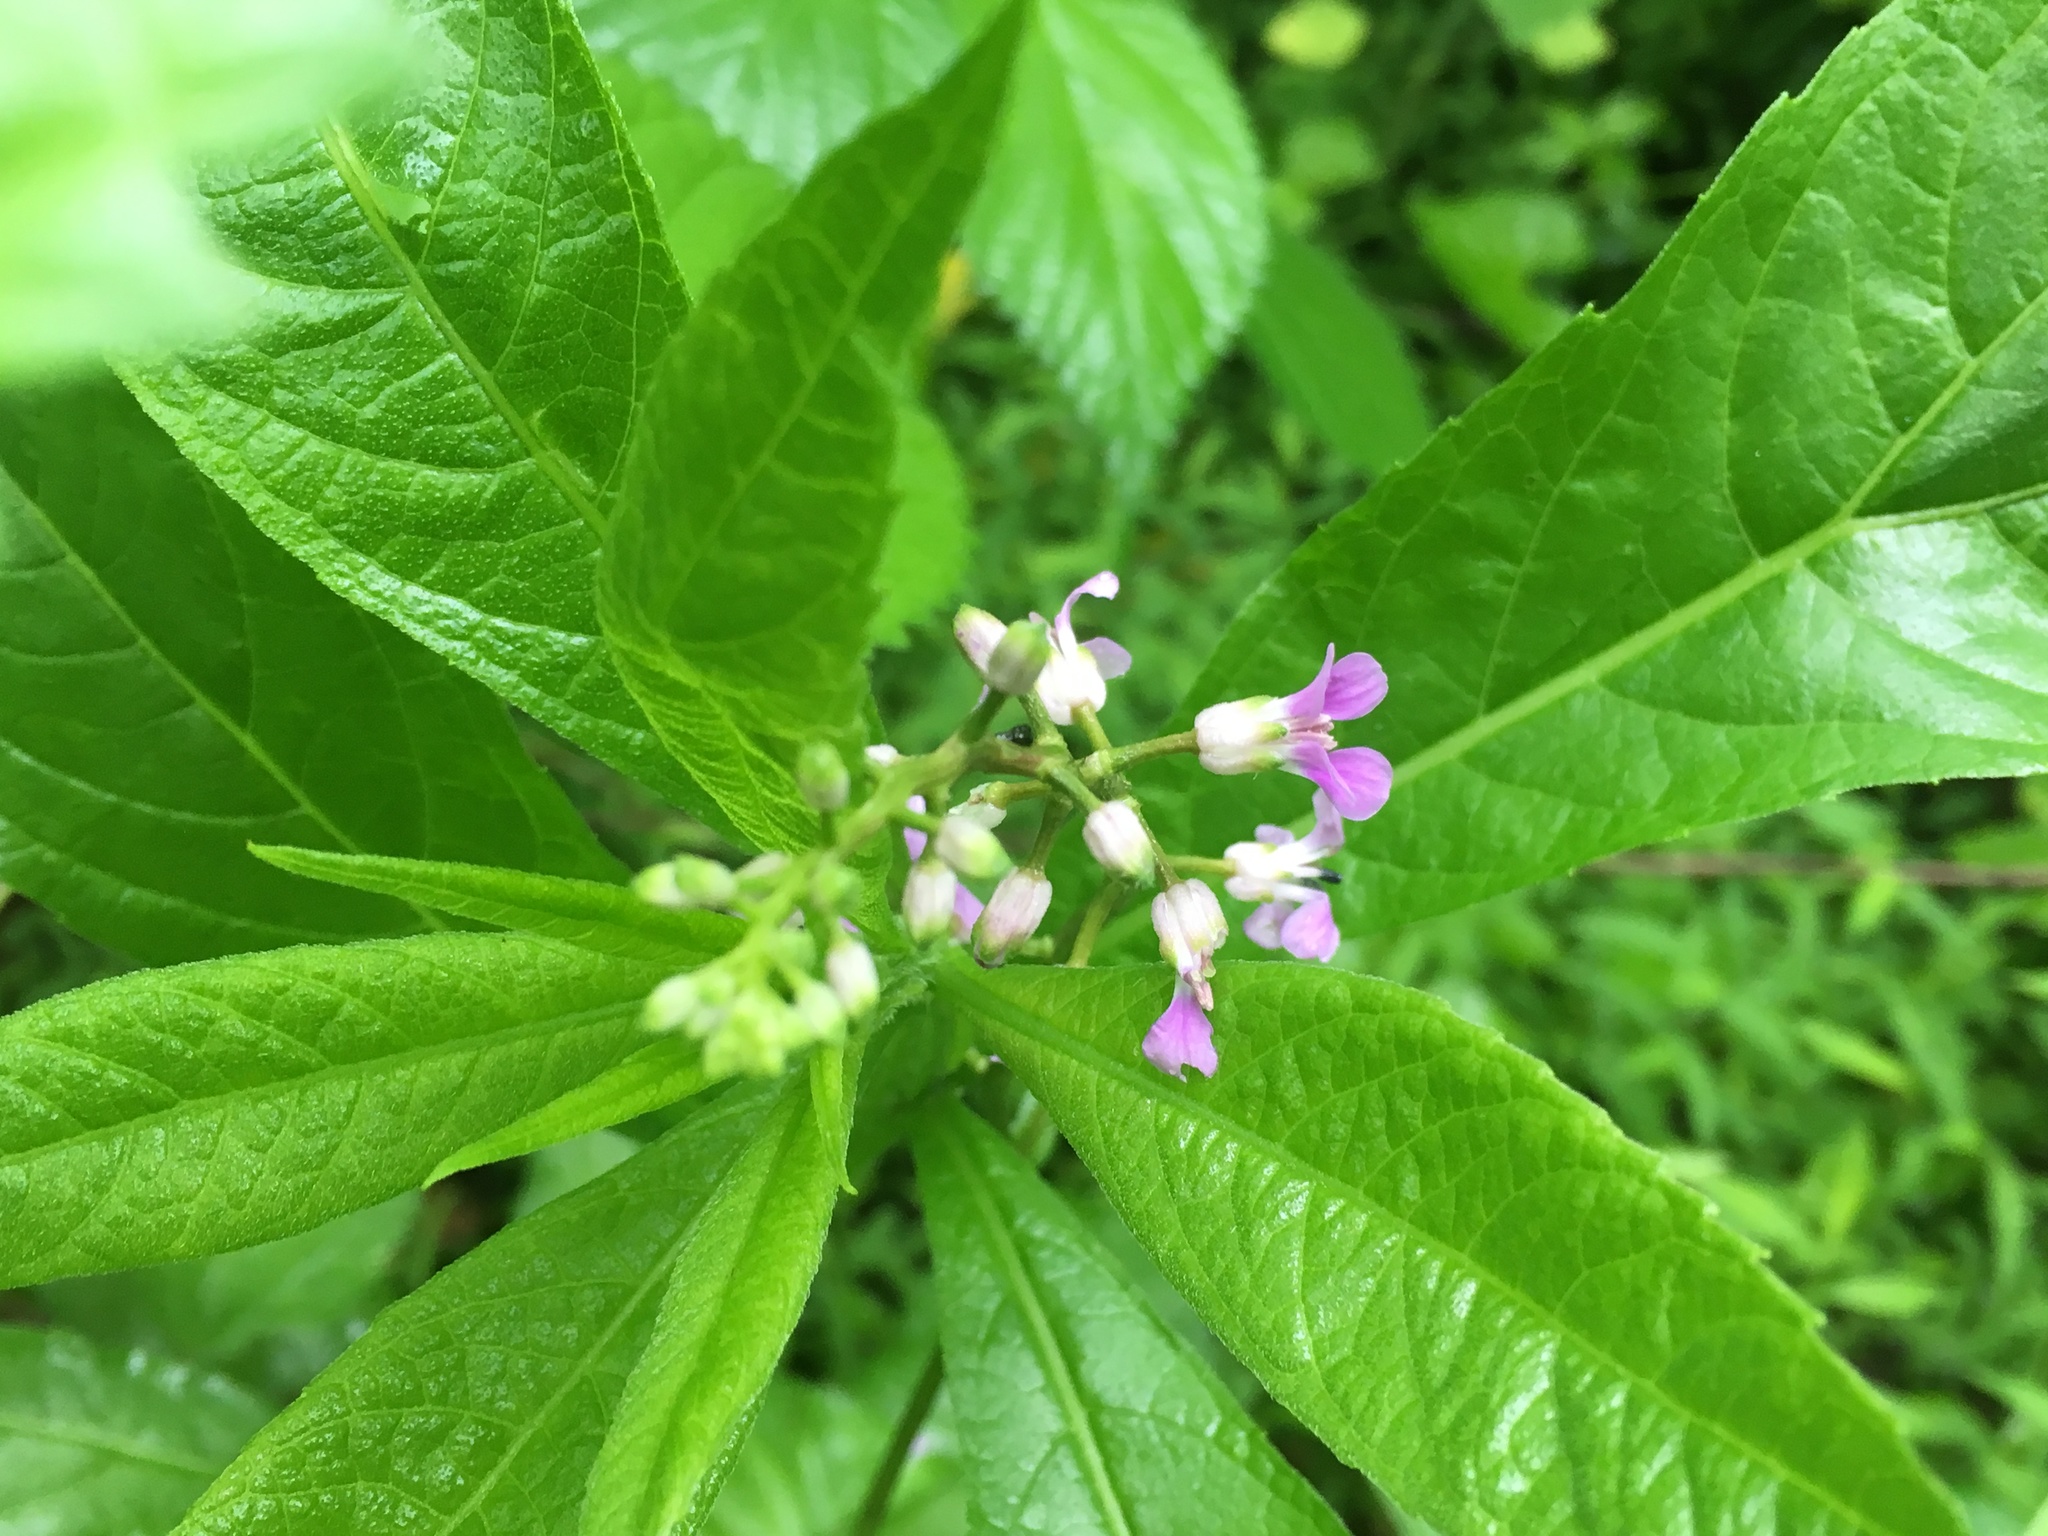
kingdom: Plantae
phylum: Tracheophyta
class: Magnoliopsida
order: Brassicales
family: Brassicaceae
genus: Iodanthus
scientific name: Iodanthus pinnatifidus
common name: Violet rocket
